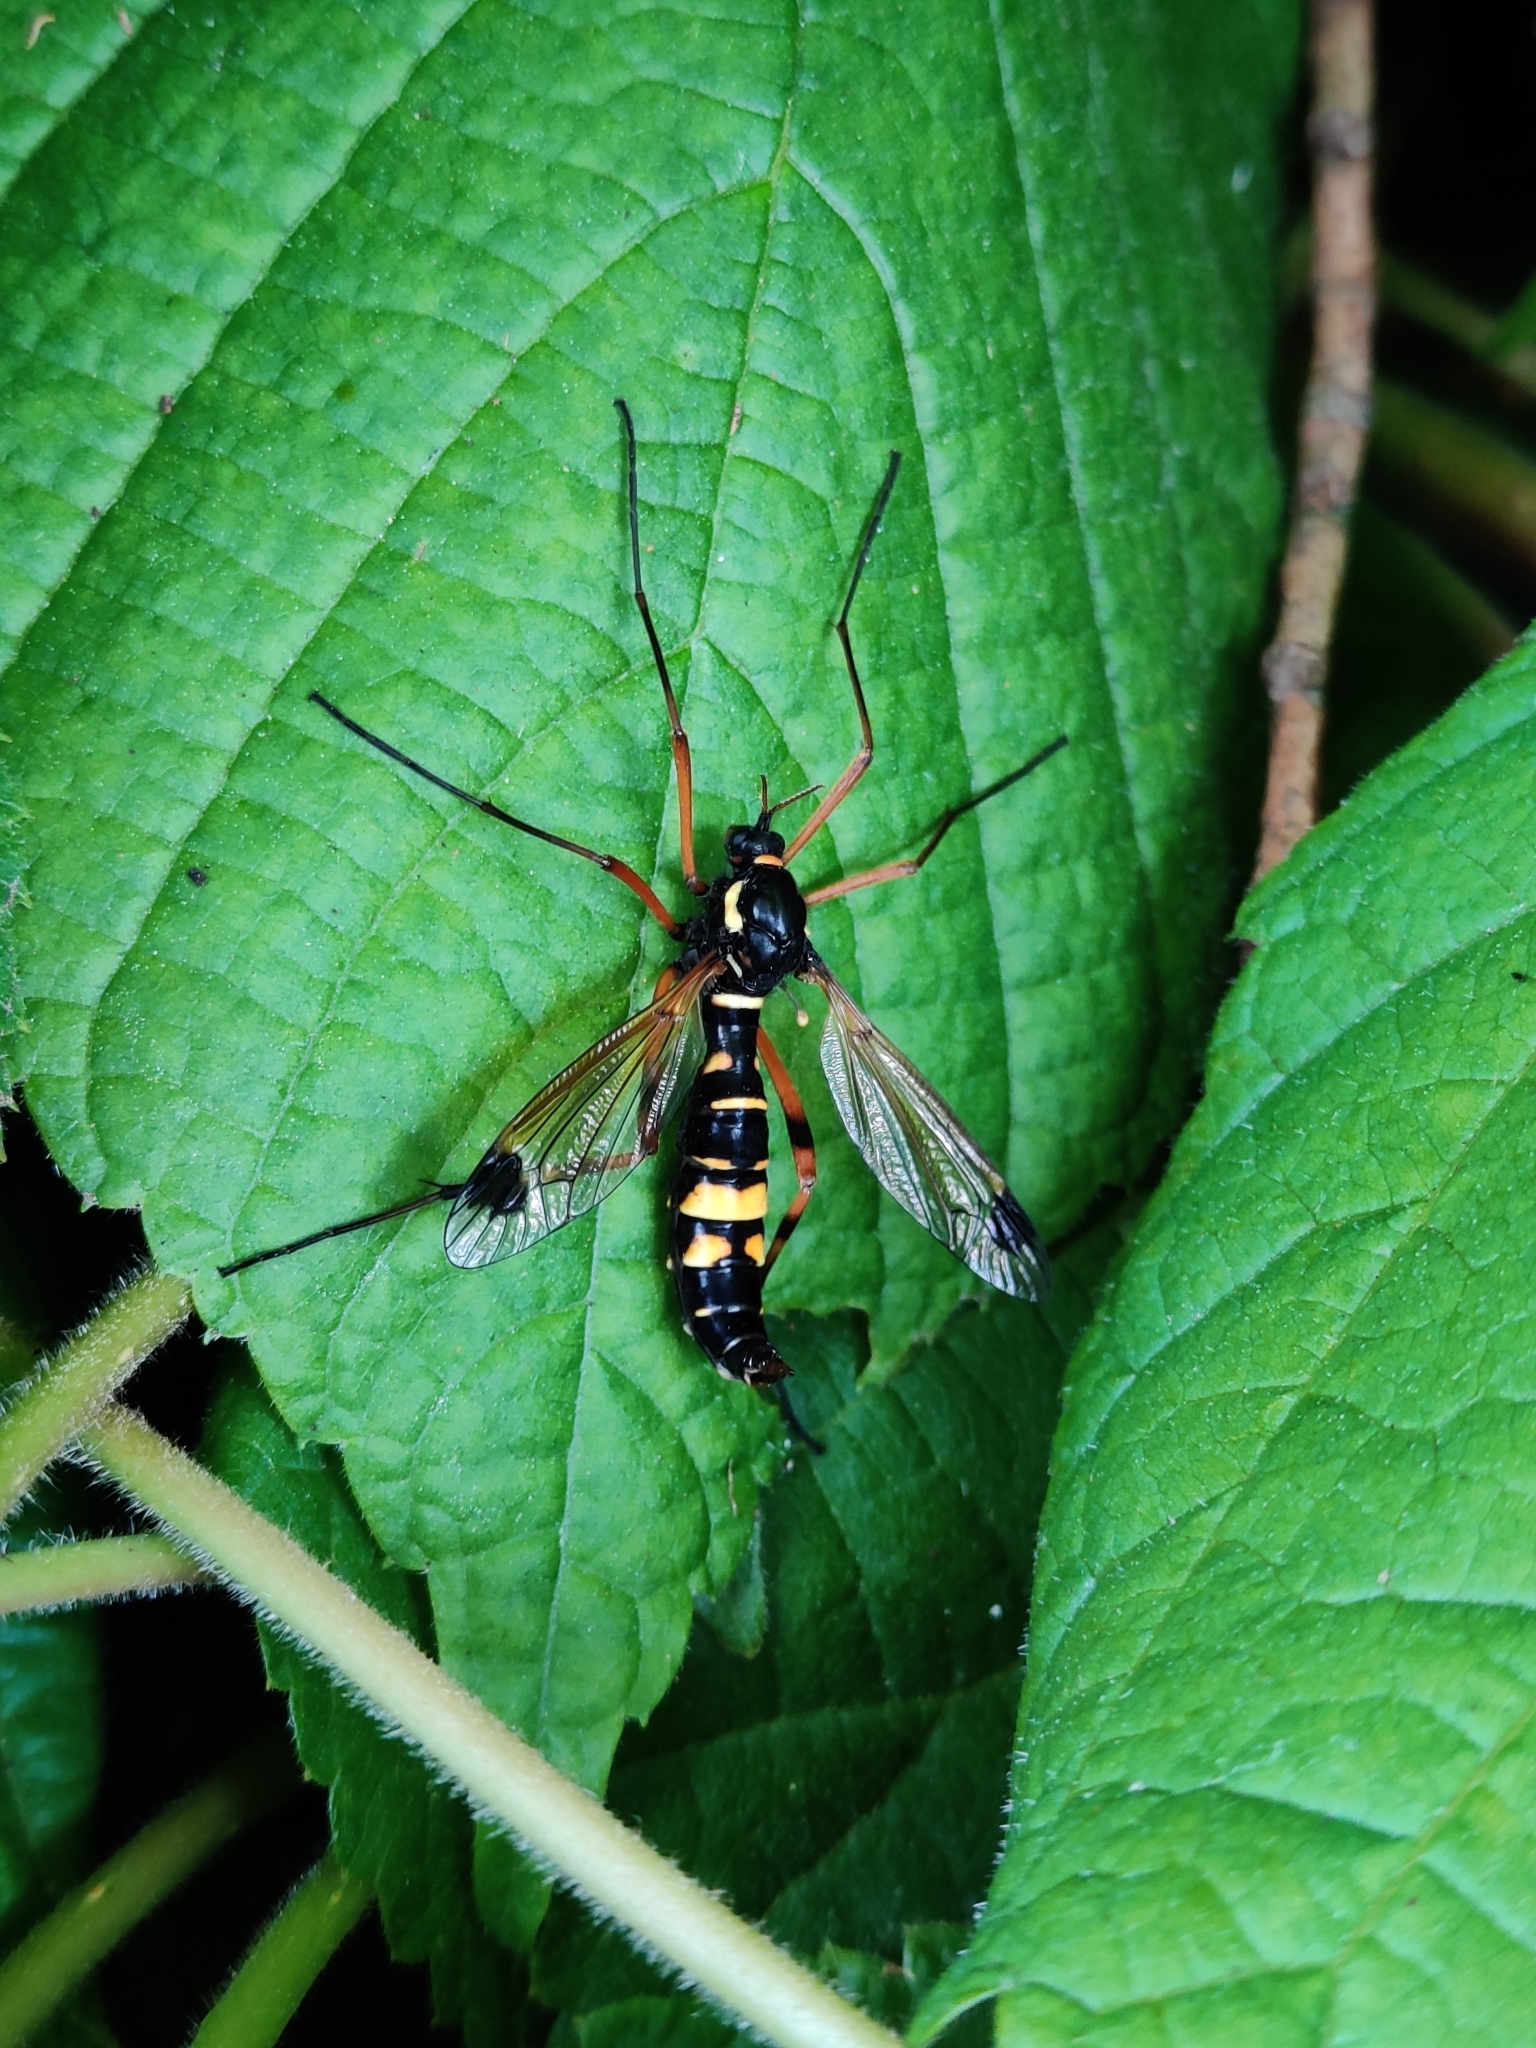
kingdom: Animalia
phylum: Arthropoda
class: Insecta
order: Diptera
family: Tipulidae
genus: Ctenophora
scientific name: Ctenophora festiva
